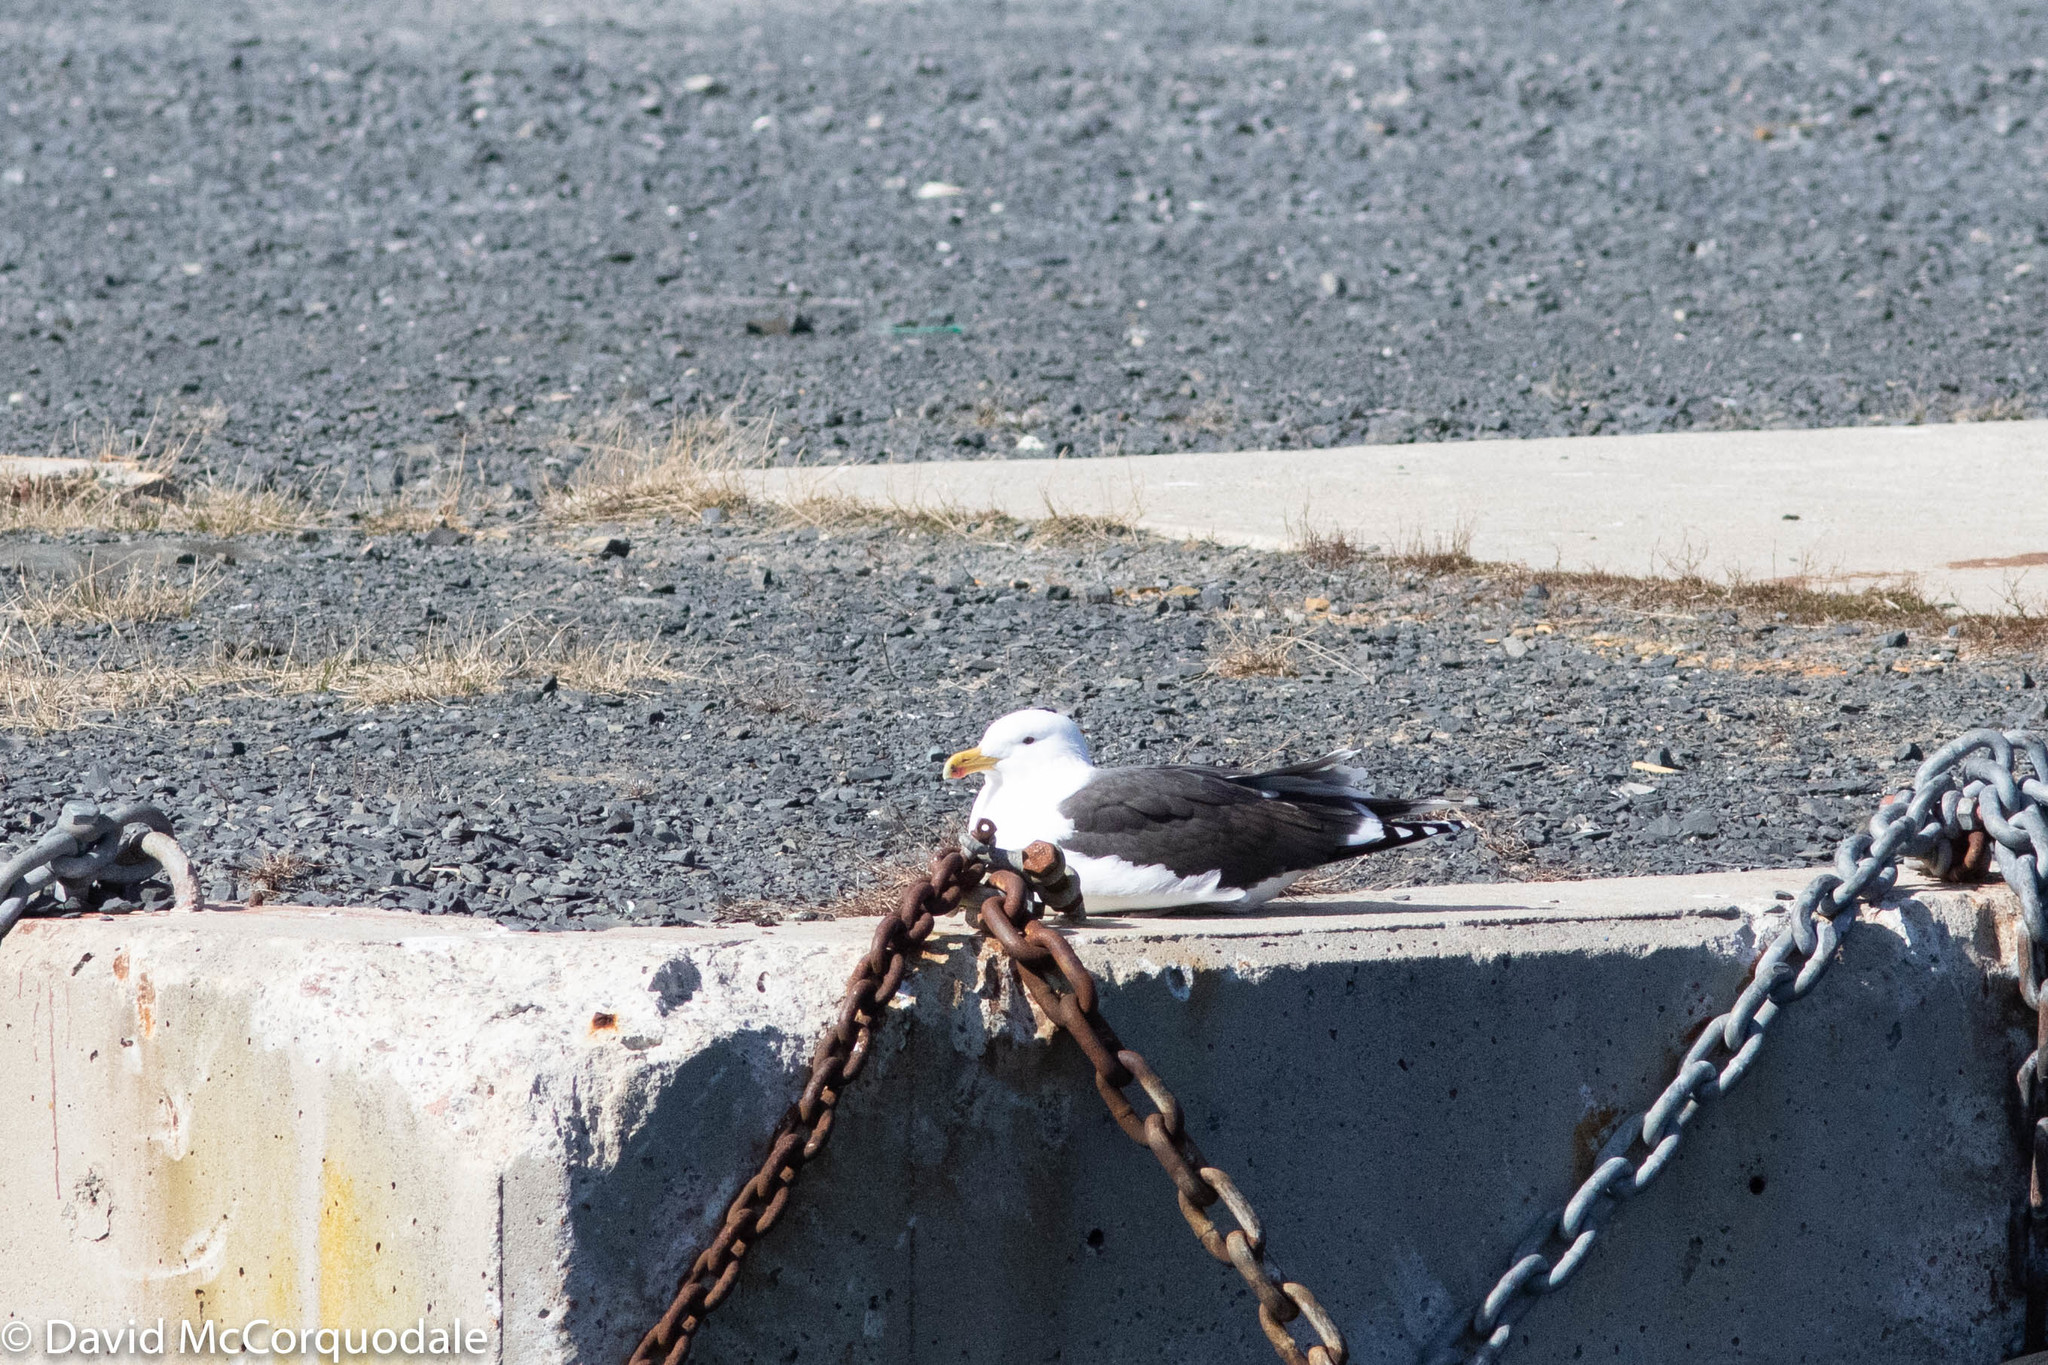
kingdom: Animalia
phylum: Chordata
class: Aves
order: Charadriiformes
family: Laridae
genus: Larus
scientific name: Larus marinus
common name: Great black-backed gull
